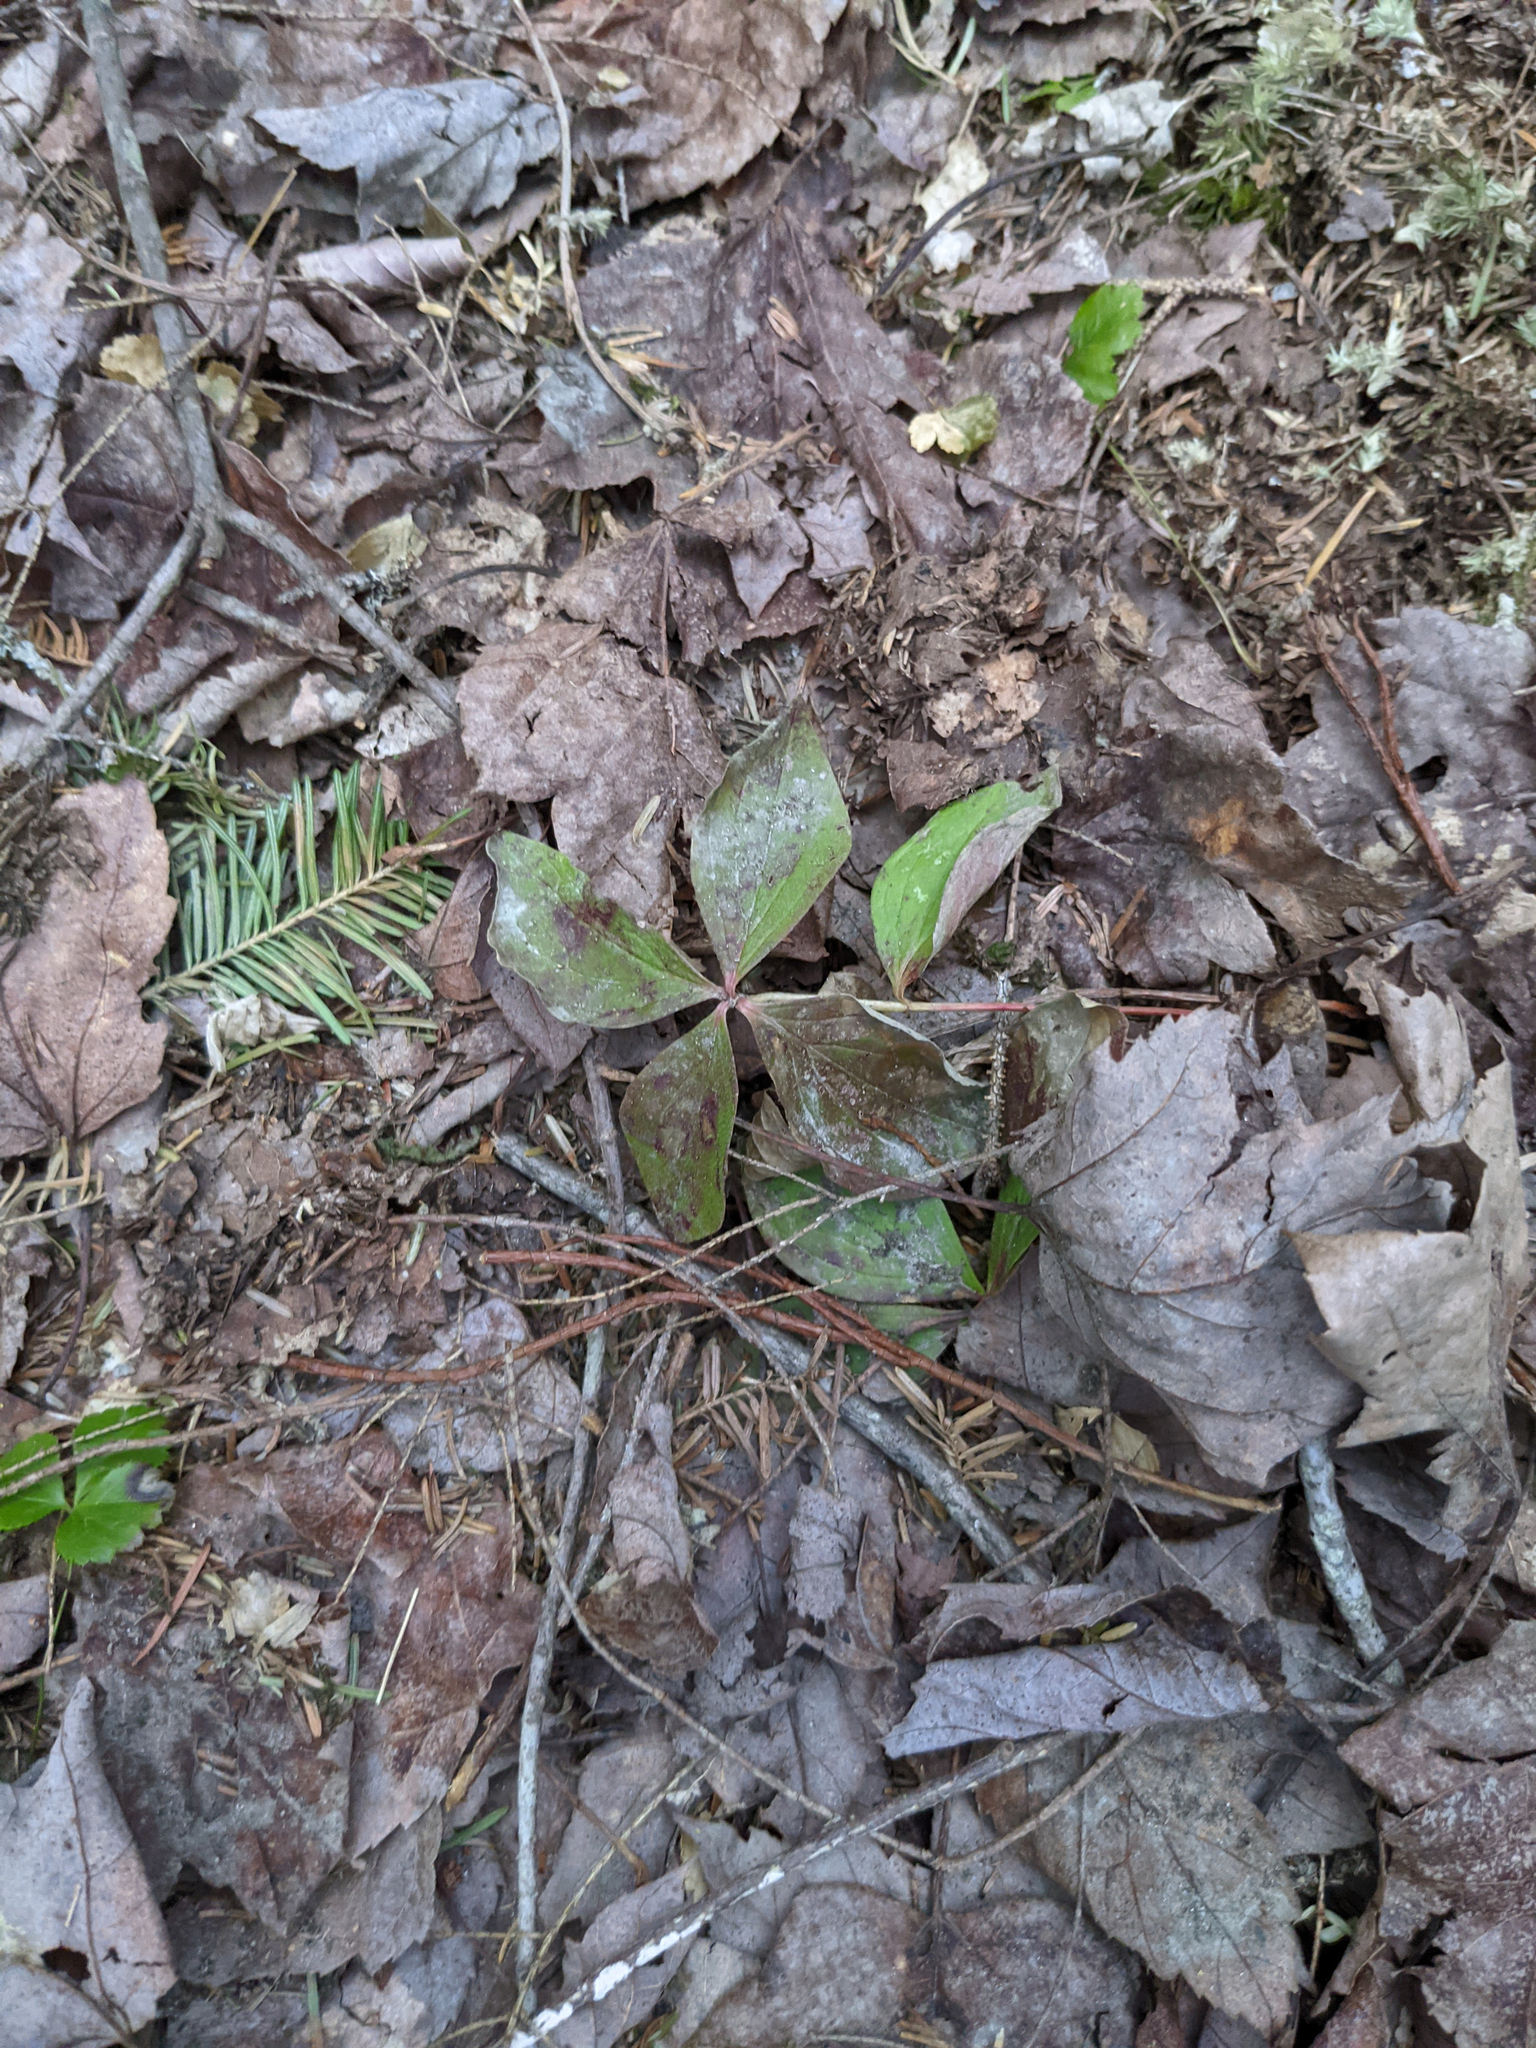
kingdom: Plantae
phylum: Tracheophyta
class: Magnoliopsida
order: Cornales
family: Cornaceae
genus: Cornus
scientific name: Cornus canadensis
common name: Creeping dogwood
